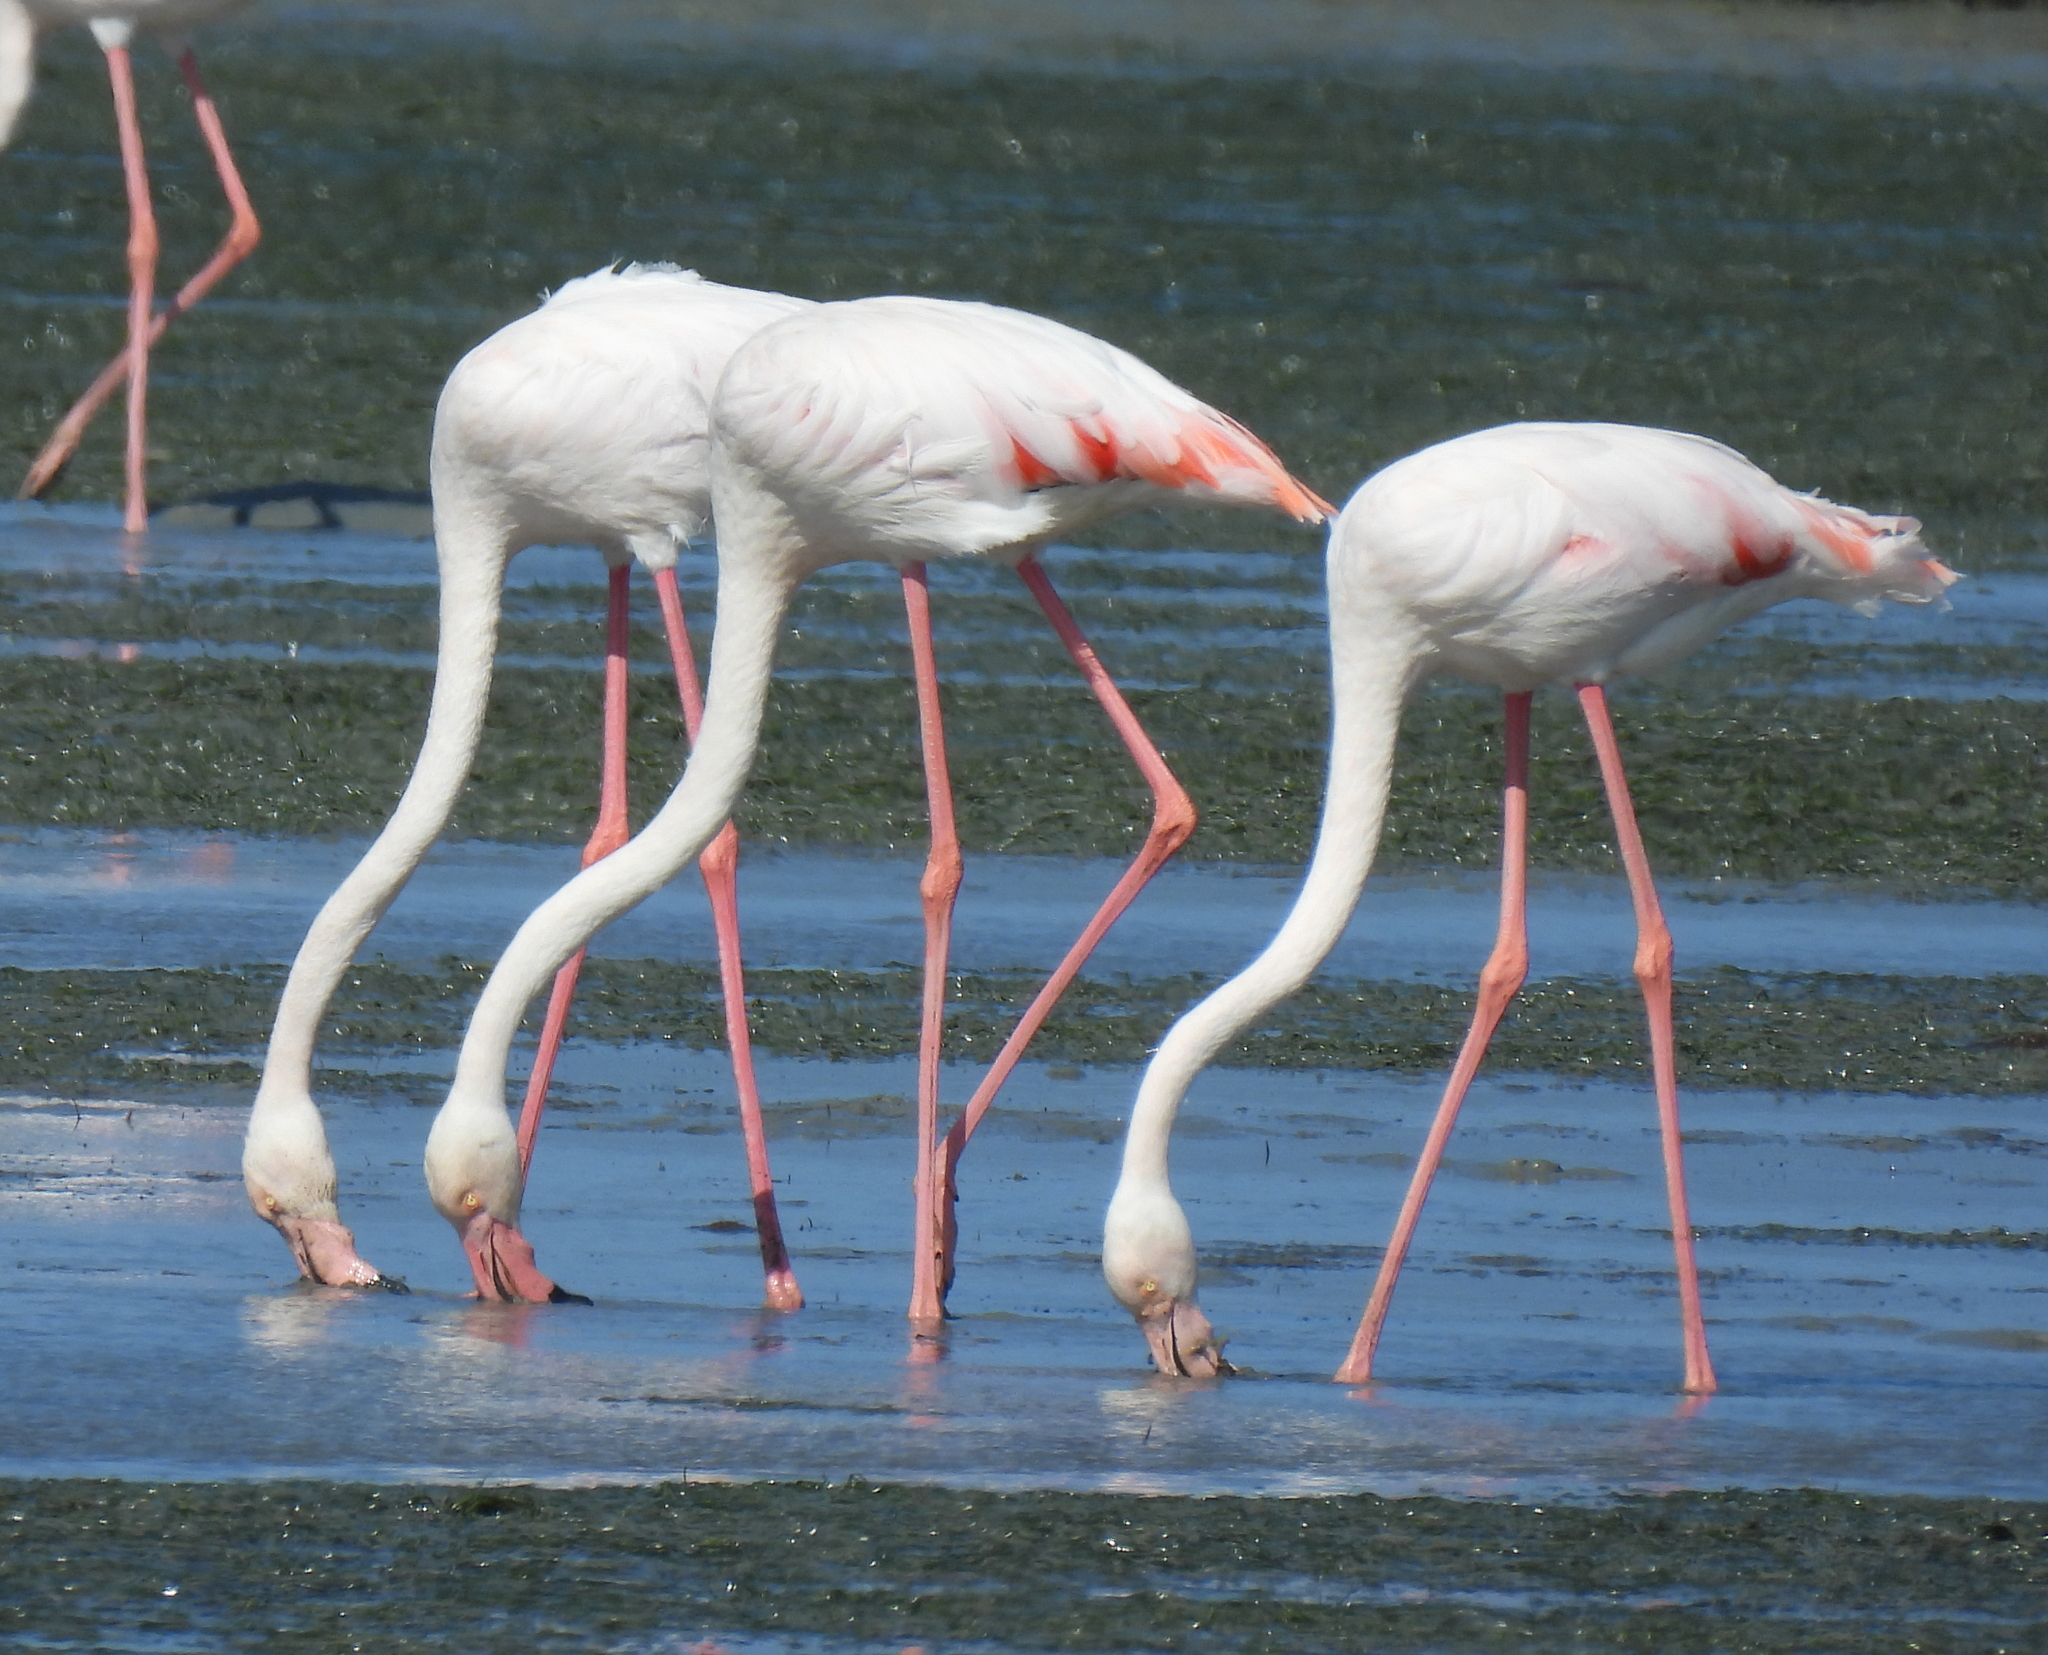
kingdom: Animalia
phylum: Chordata
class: Aves
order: Phoenicopteriformes
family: Phoenicopteridae
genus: Phoenicopterus
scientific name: Phoenicopterus roseus
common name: Greater flamingo
